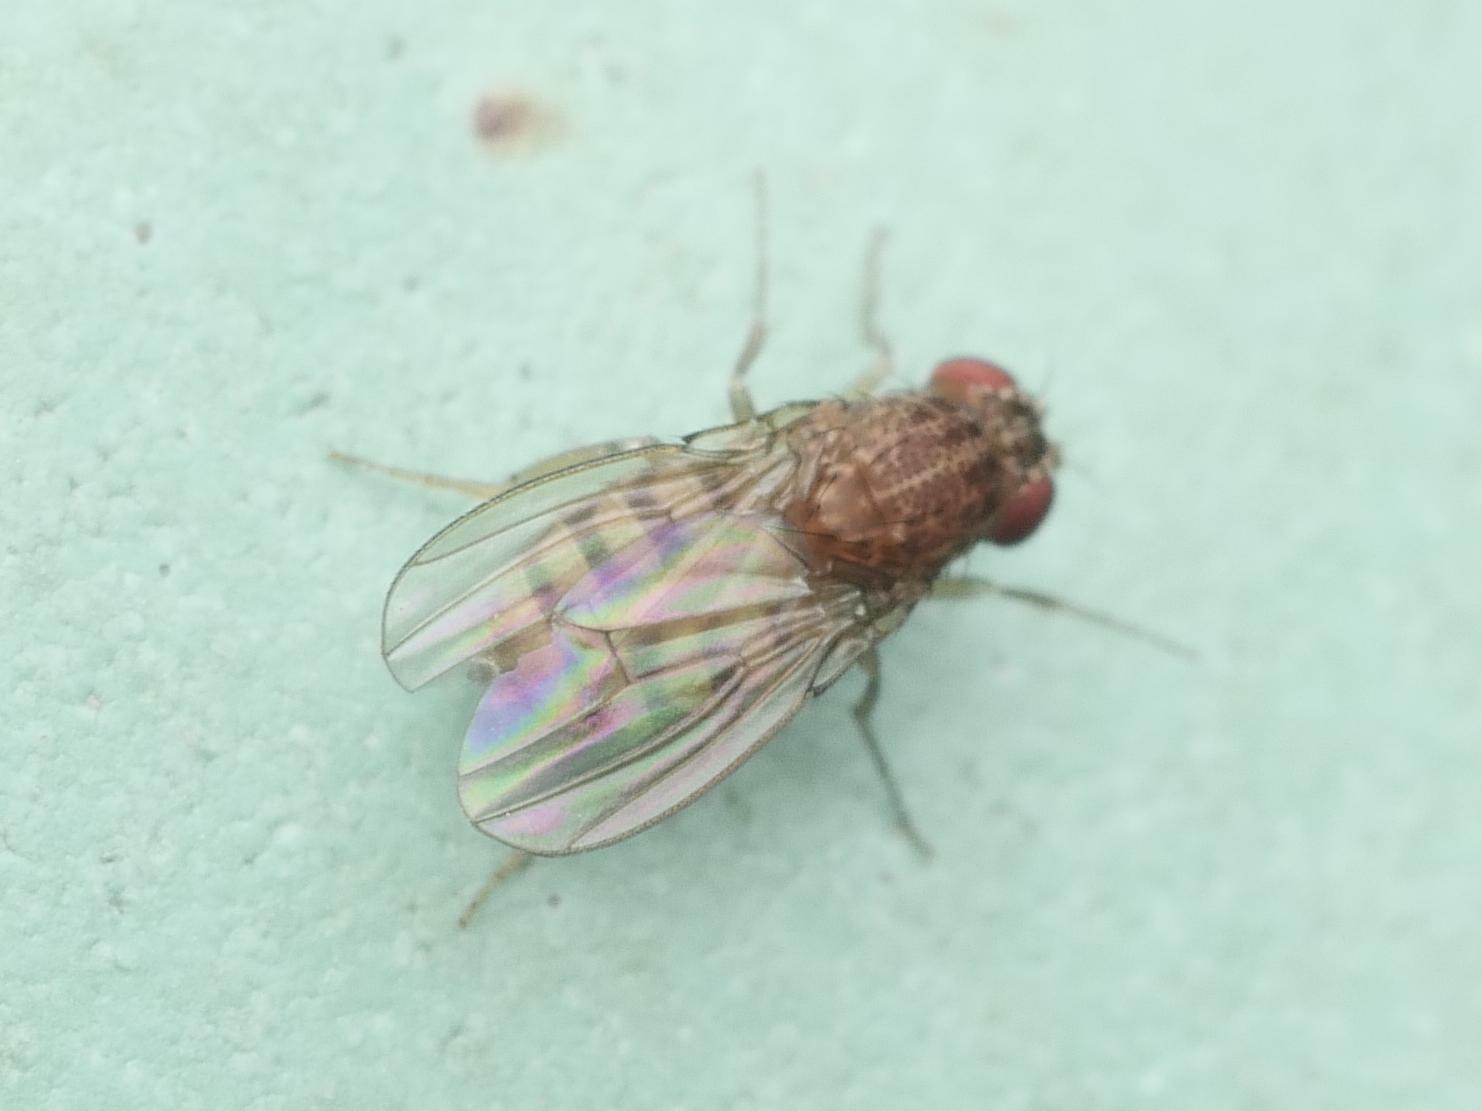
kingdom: Animalia
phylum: Arthropoda
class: Insecta
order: Diptera
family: Drosophilidae
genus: Drosophila
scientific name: Drosophila repleta
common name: Pomace fly
